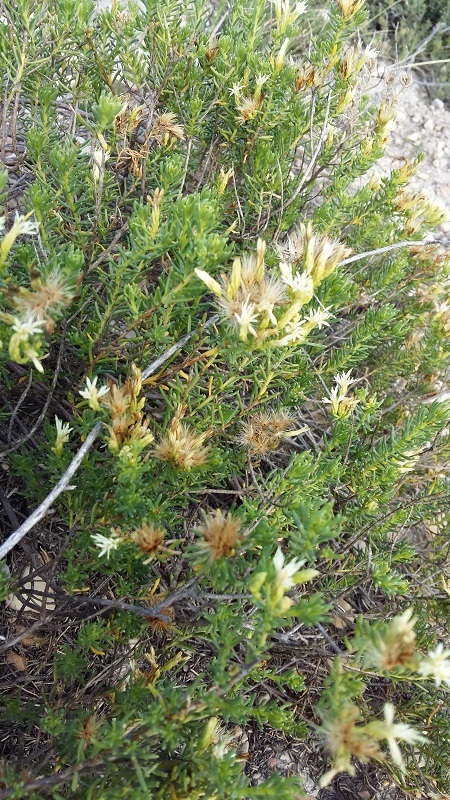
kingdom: Plantae
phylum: Tracheophyta
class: Magnoliopsida
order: Asterales
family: Asteraceae
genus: Pteronia
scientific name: Pteronia teretifolia
